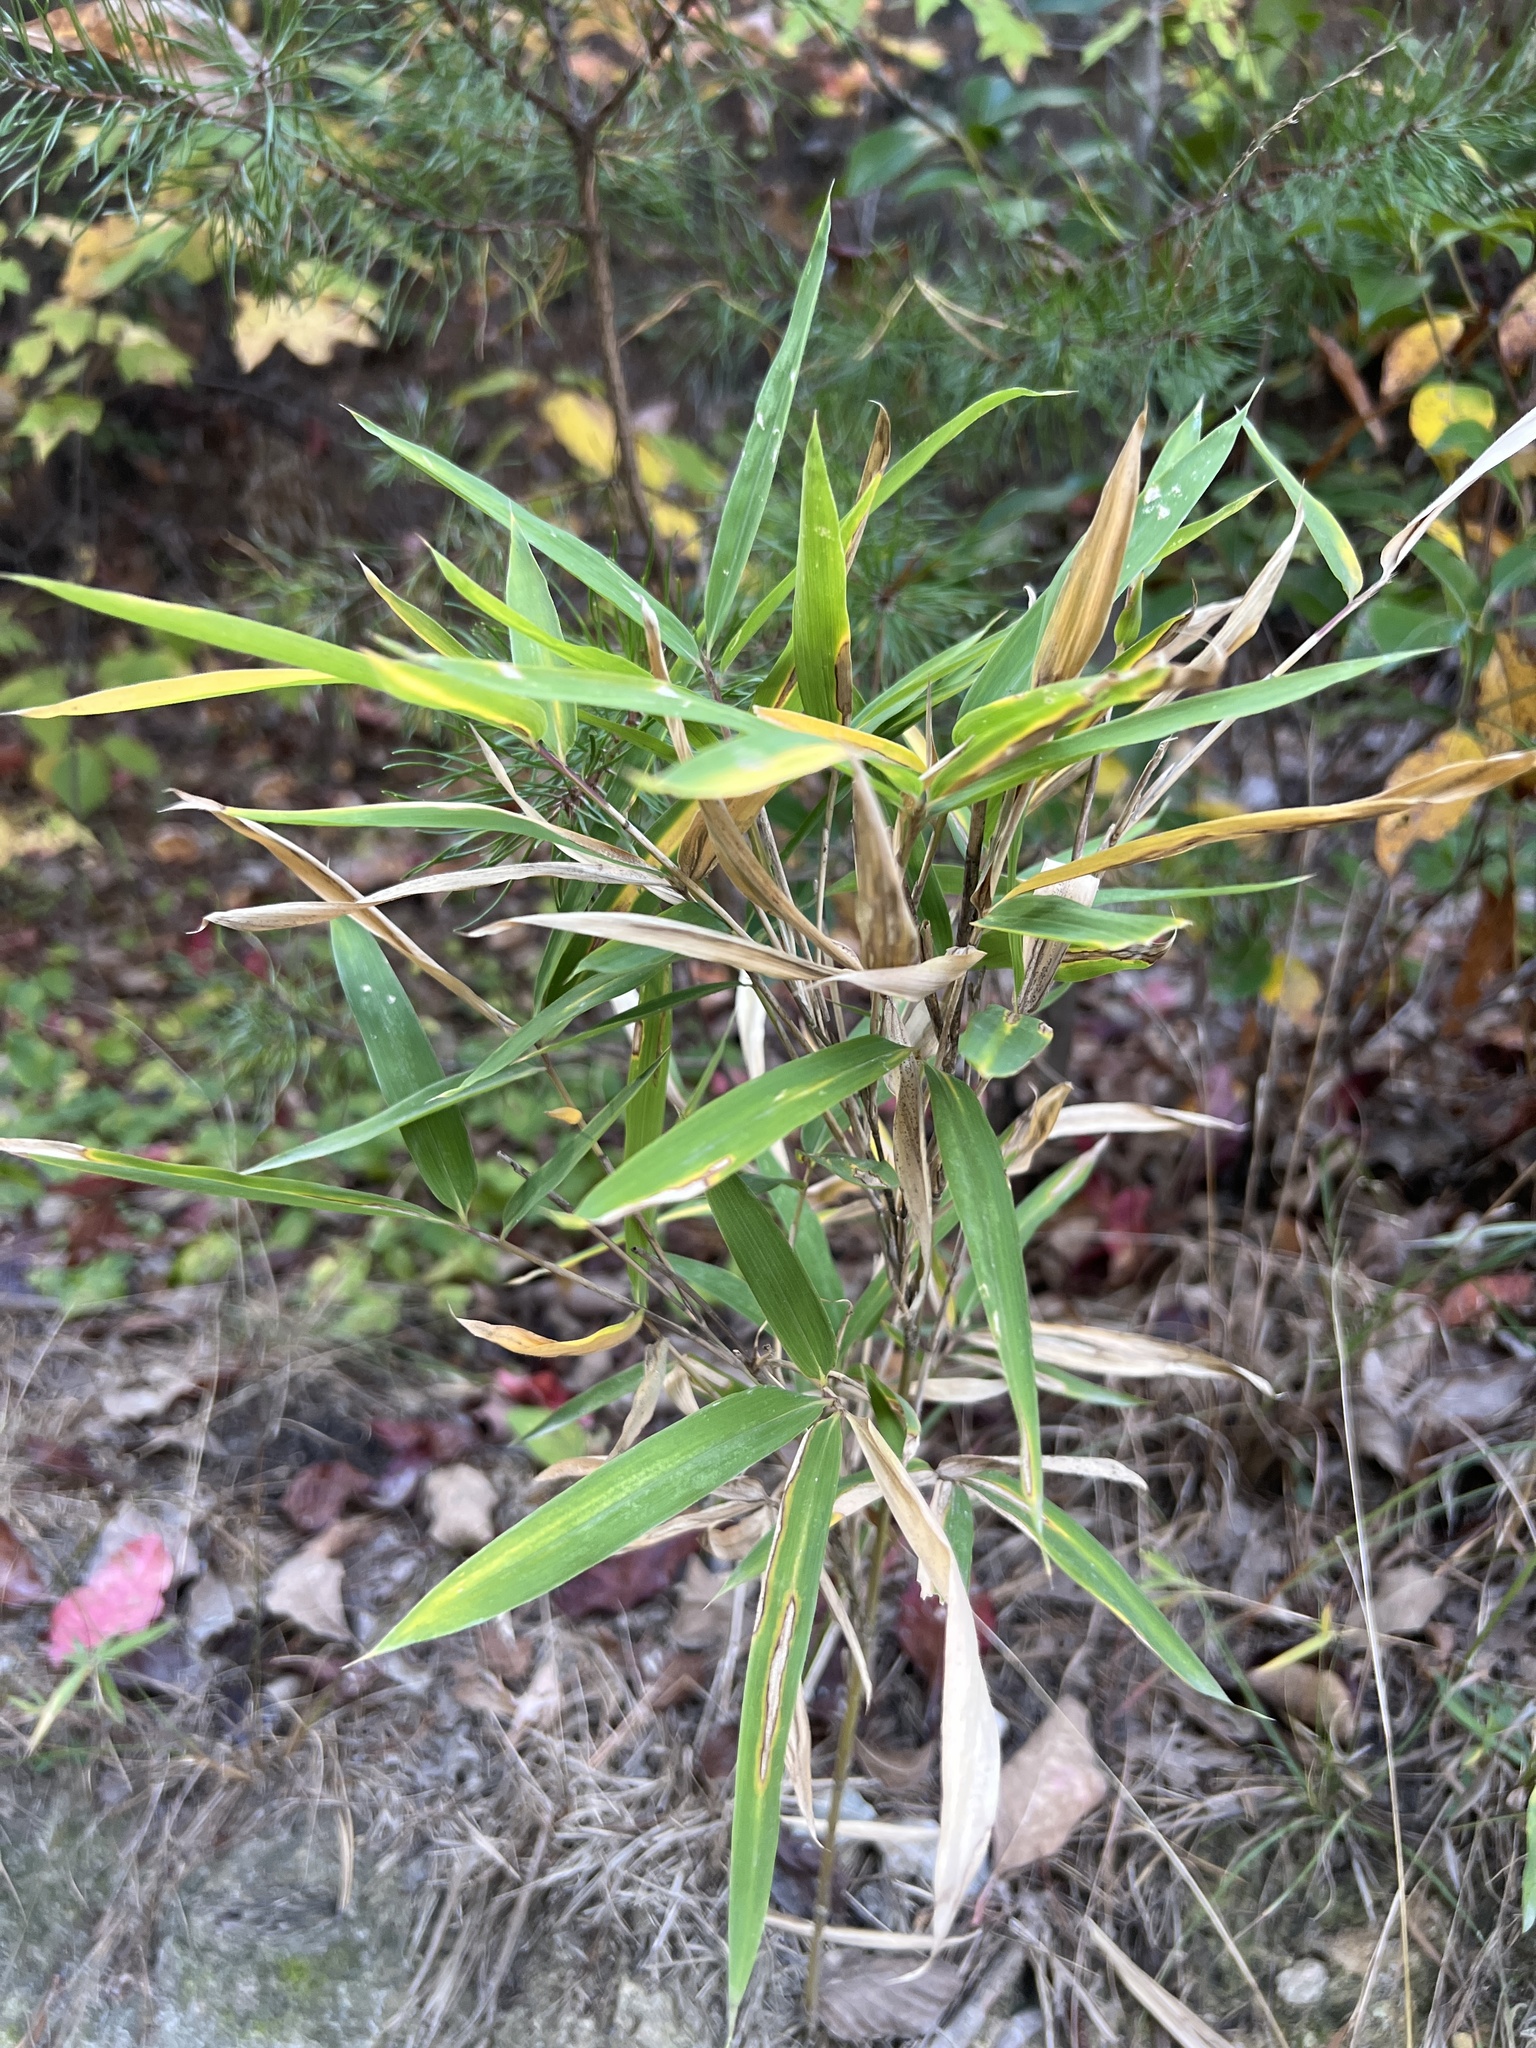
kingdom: Plantae
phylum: Tracheophyta
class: Liliopsida
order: Poales
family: Poaceae
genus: Arundinaria
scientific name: Arundinaria appalachiana
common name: Hill cane
